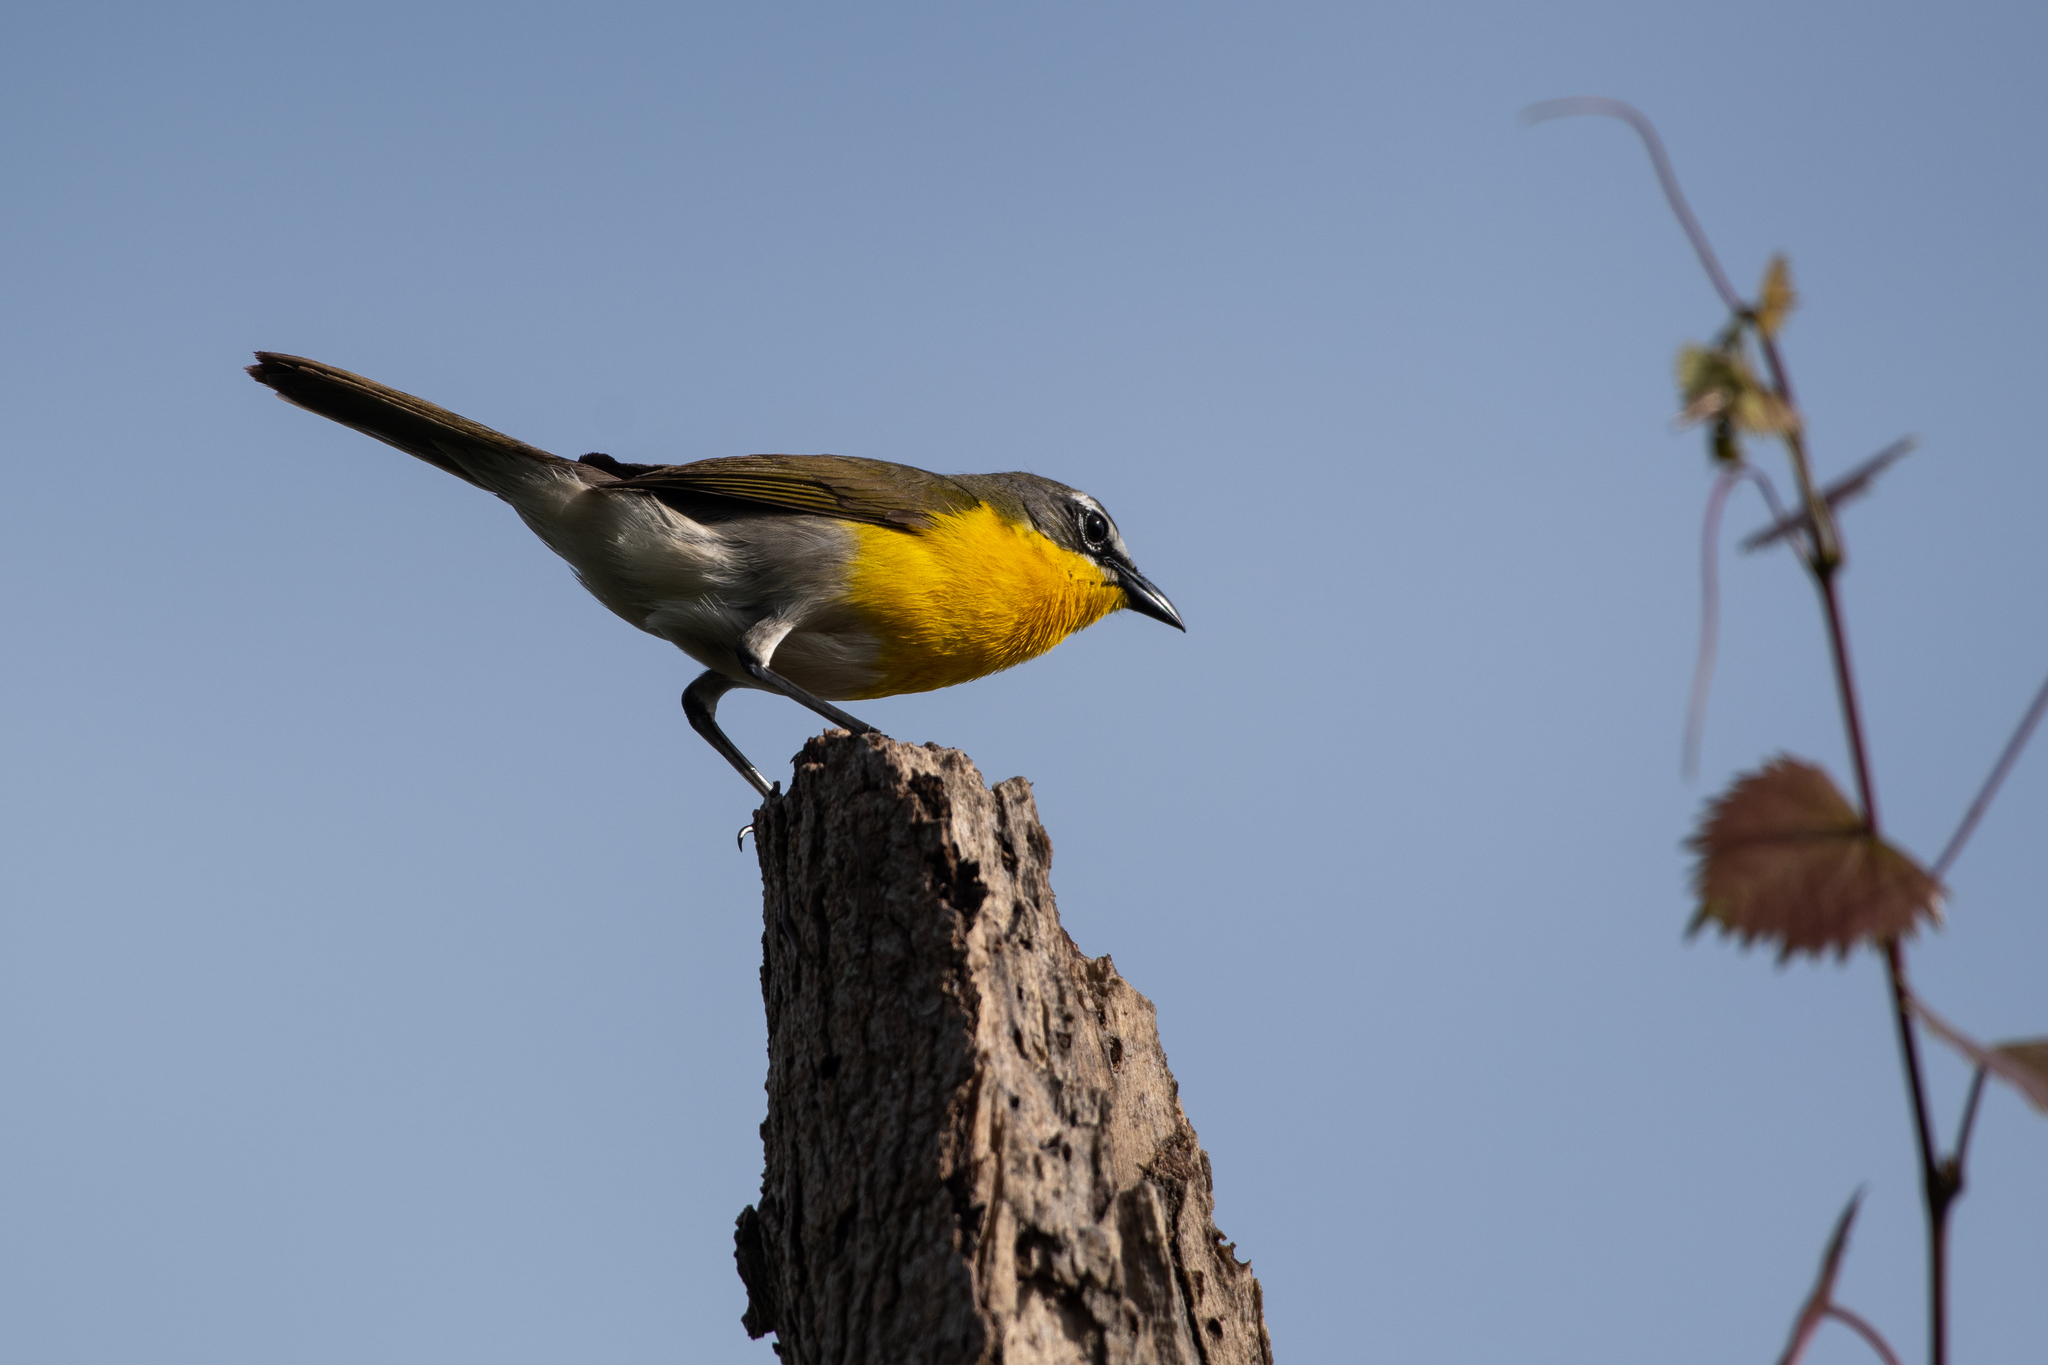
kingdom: Animalia
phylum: Chordata
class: Aves
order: Passeriformes
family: Parulidae
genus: Icteria
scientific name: Icteria virens
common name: Yellow-breasted chat
